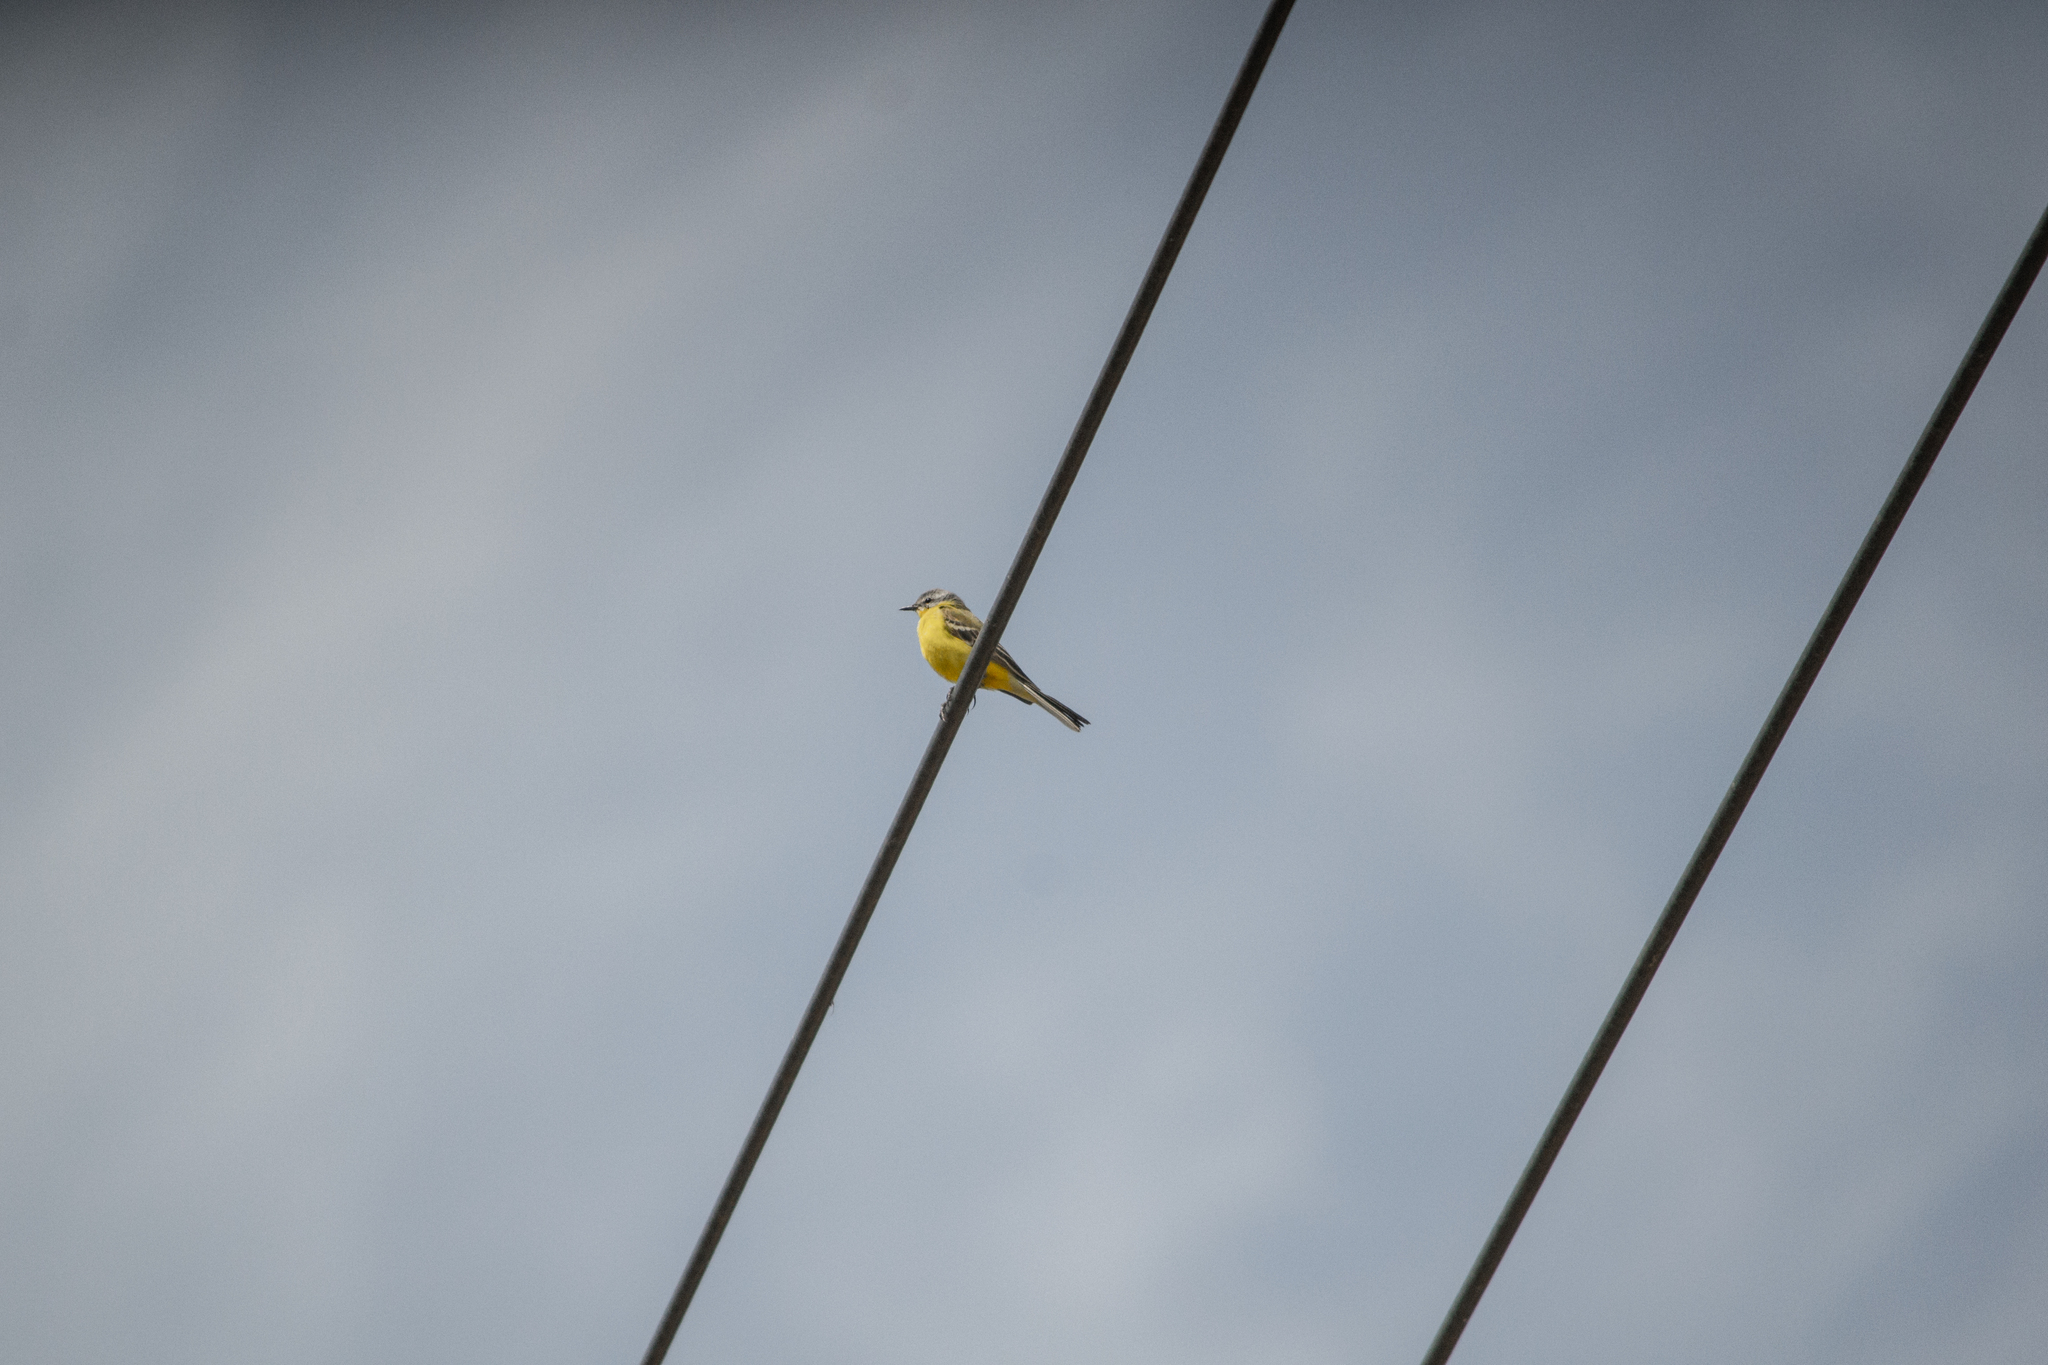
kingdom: Animalia
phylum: Chordata
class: Aves
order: Passeriformes
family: Motacillidae
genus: Motacilla
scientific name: Motacilla flava
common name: Western yellow wagtail
